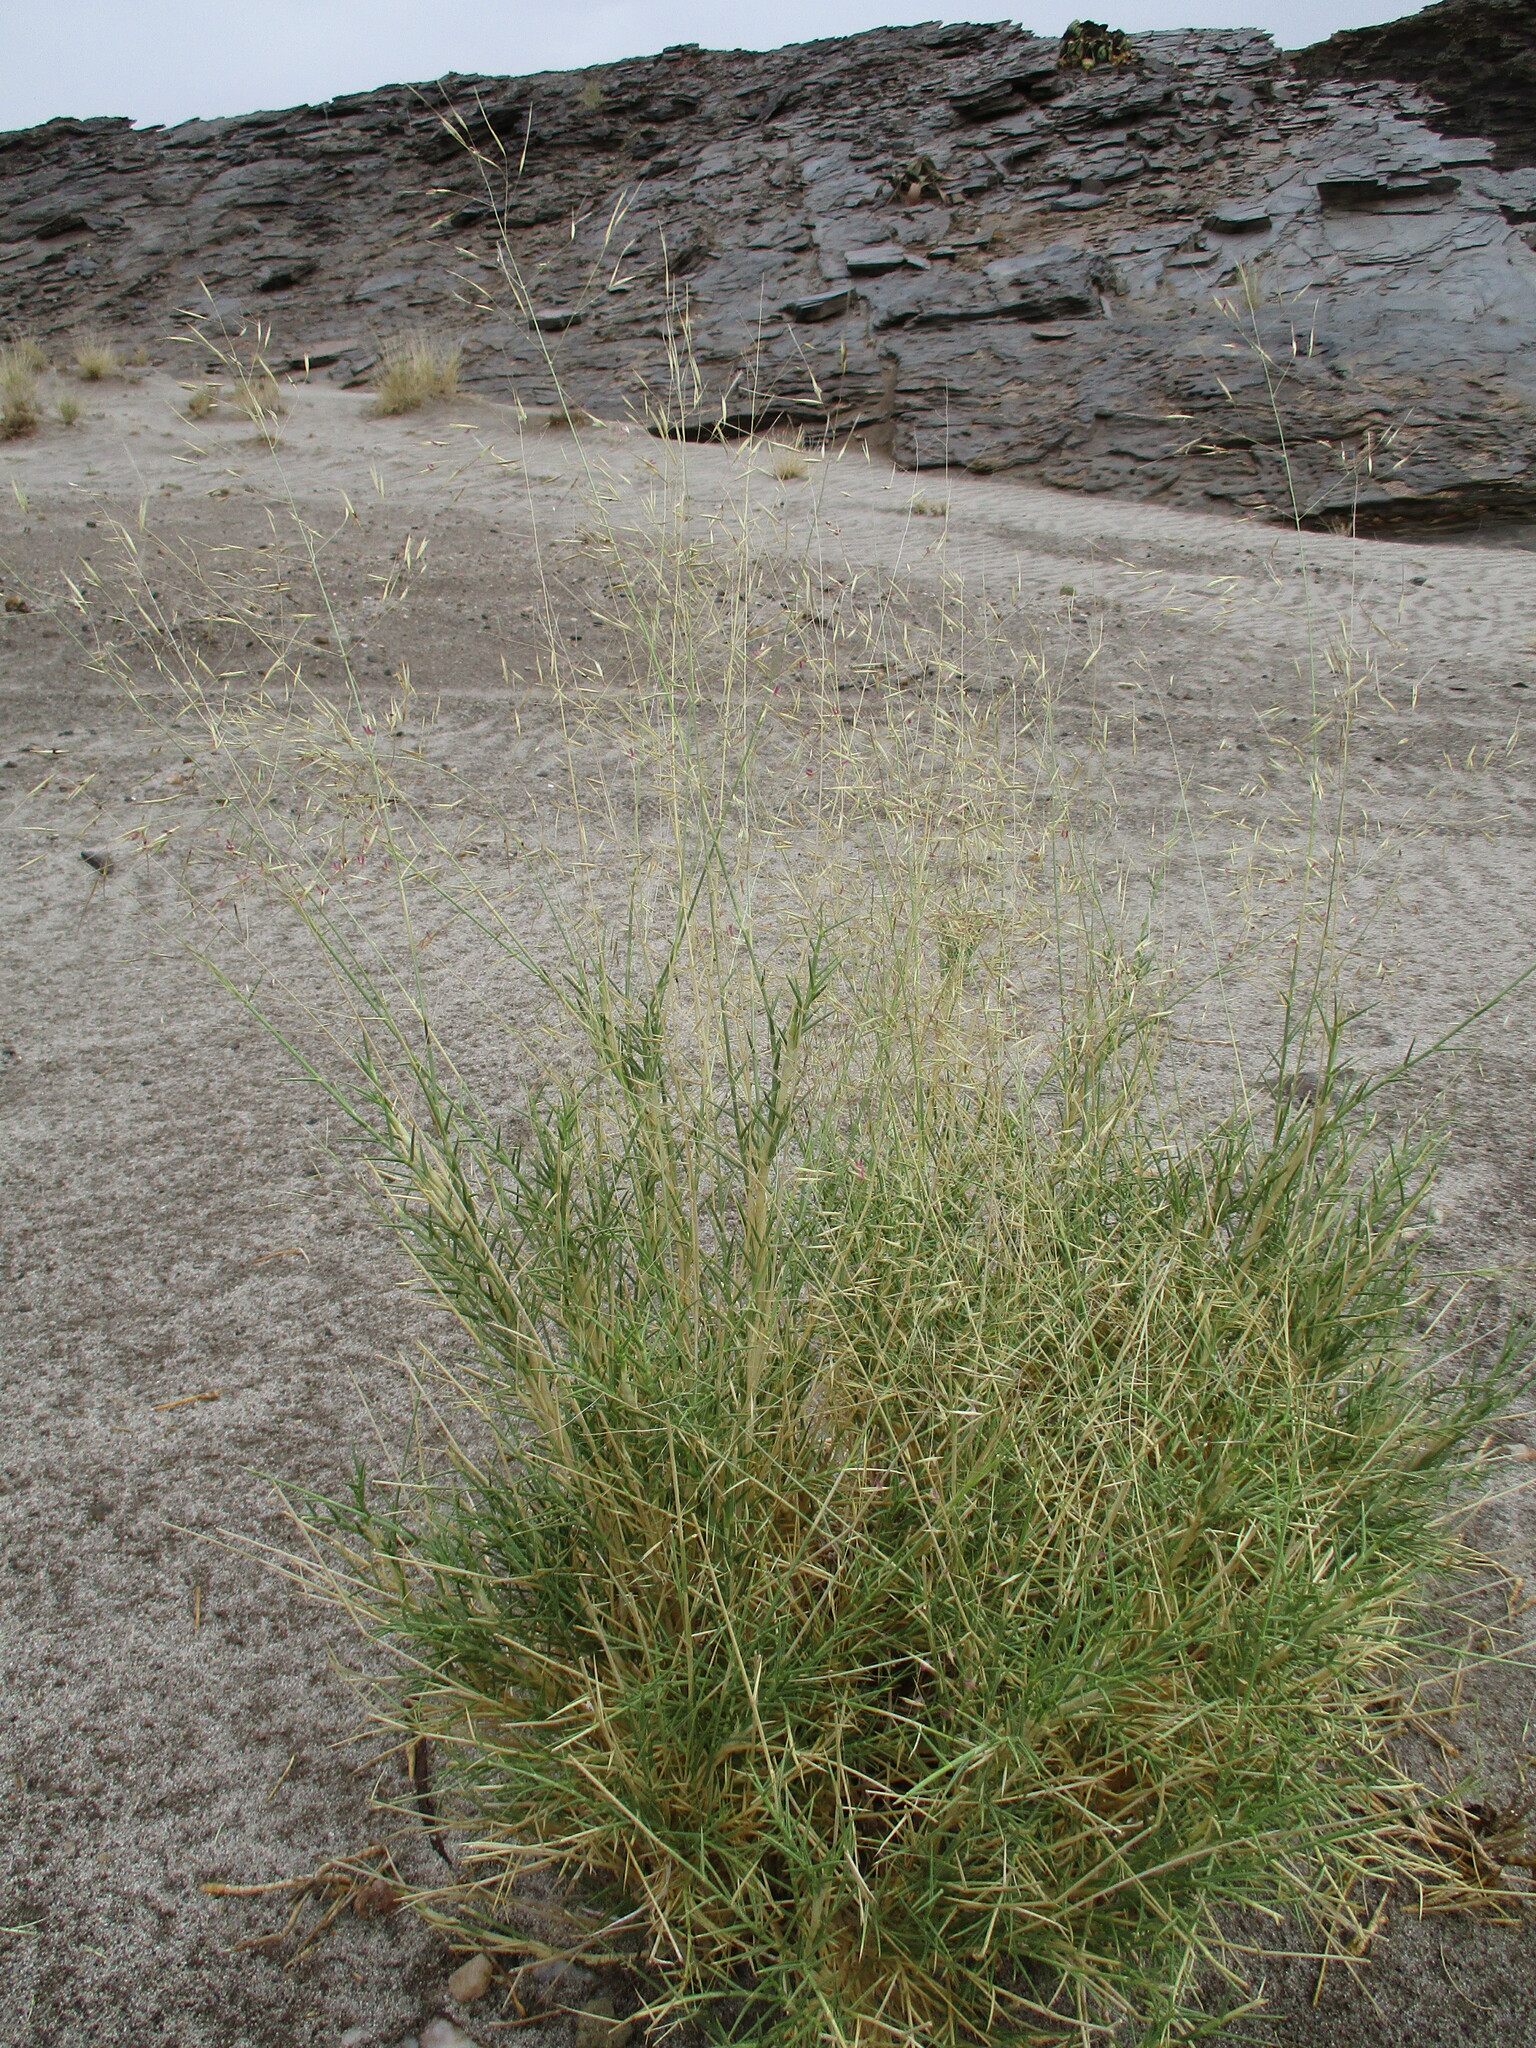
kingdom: Plantae
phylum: Tracheophyta
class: Liliopsida
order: Poales
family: Poaceae
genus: Stipagrostis
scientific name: Stipagrostis lutescens
